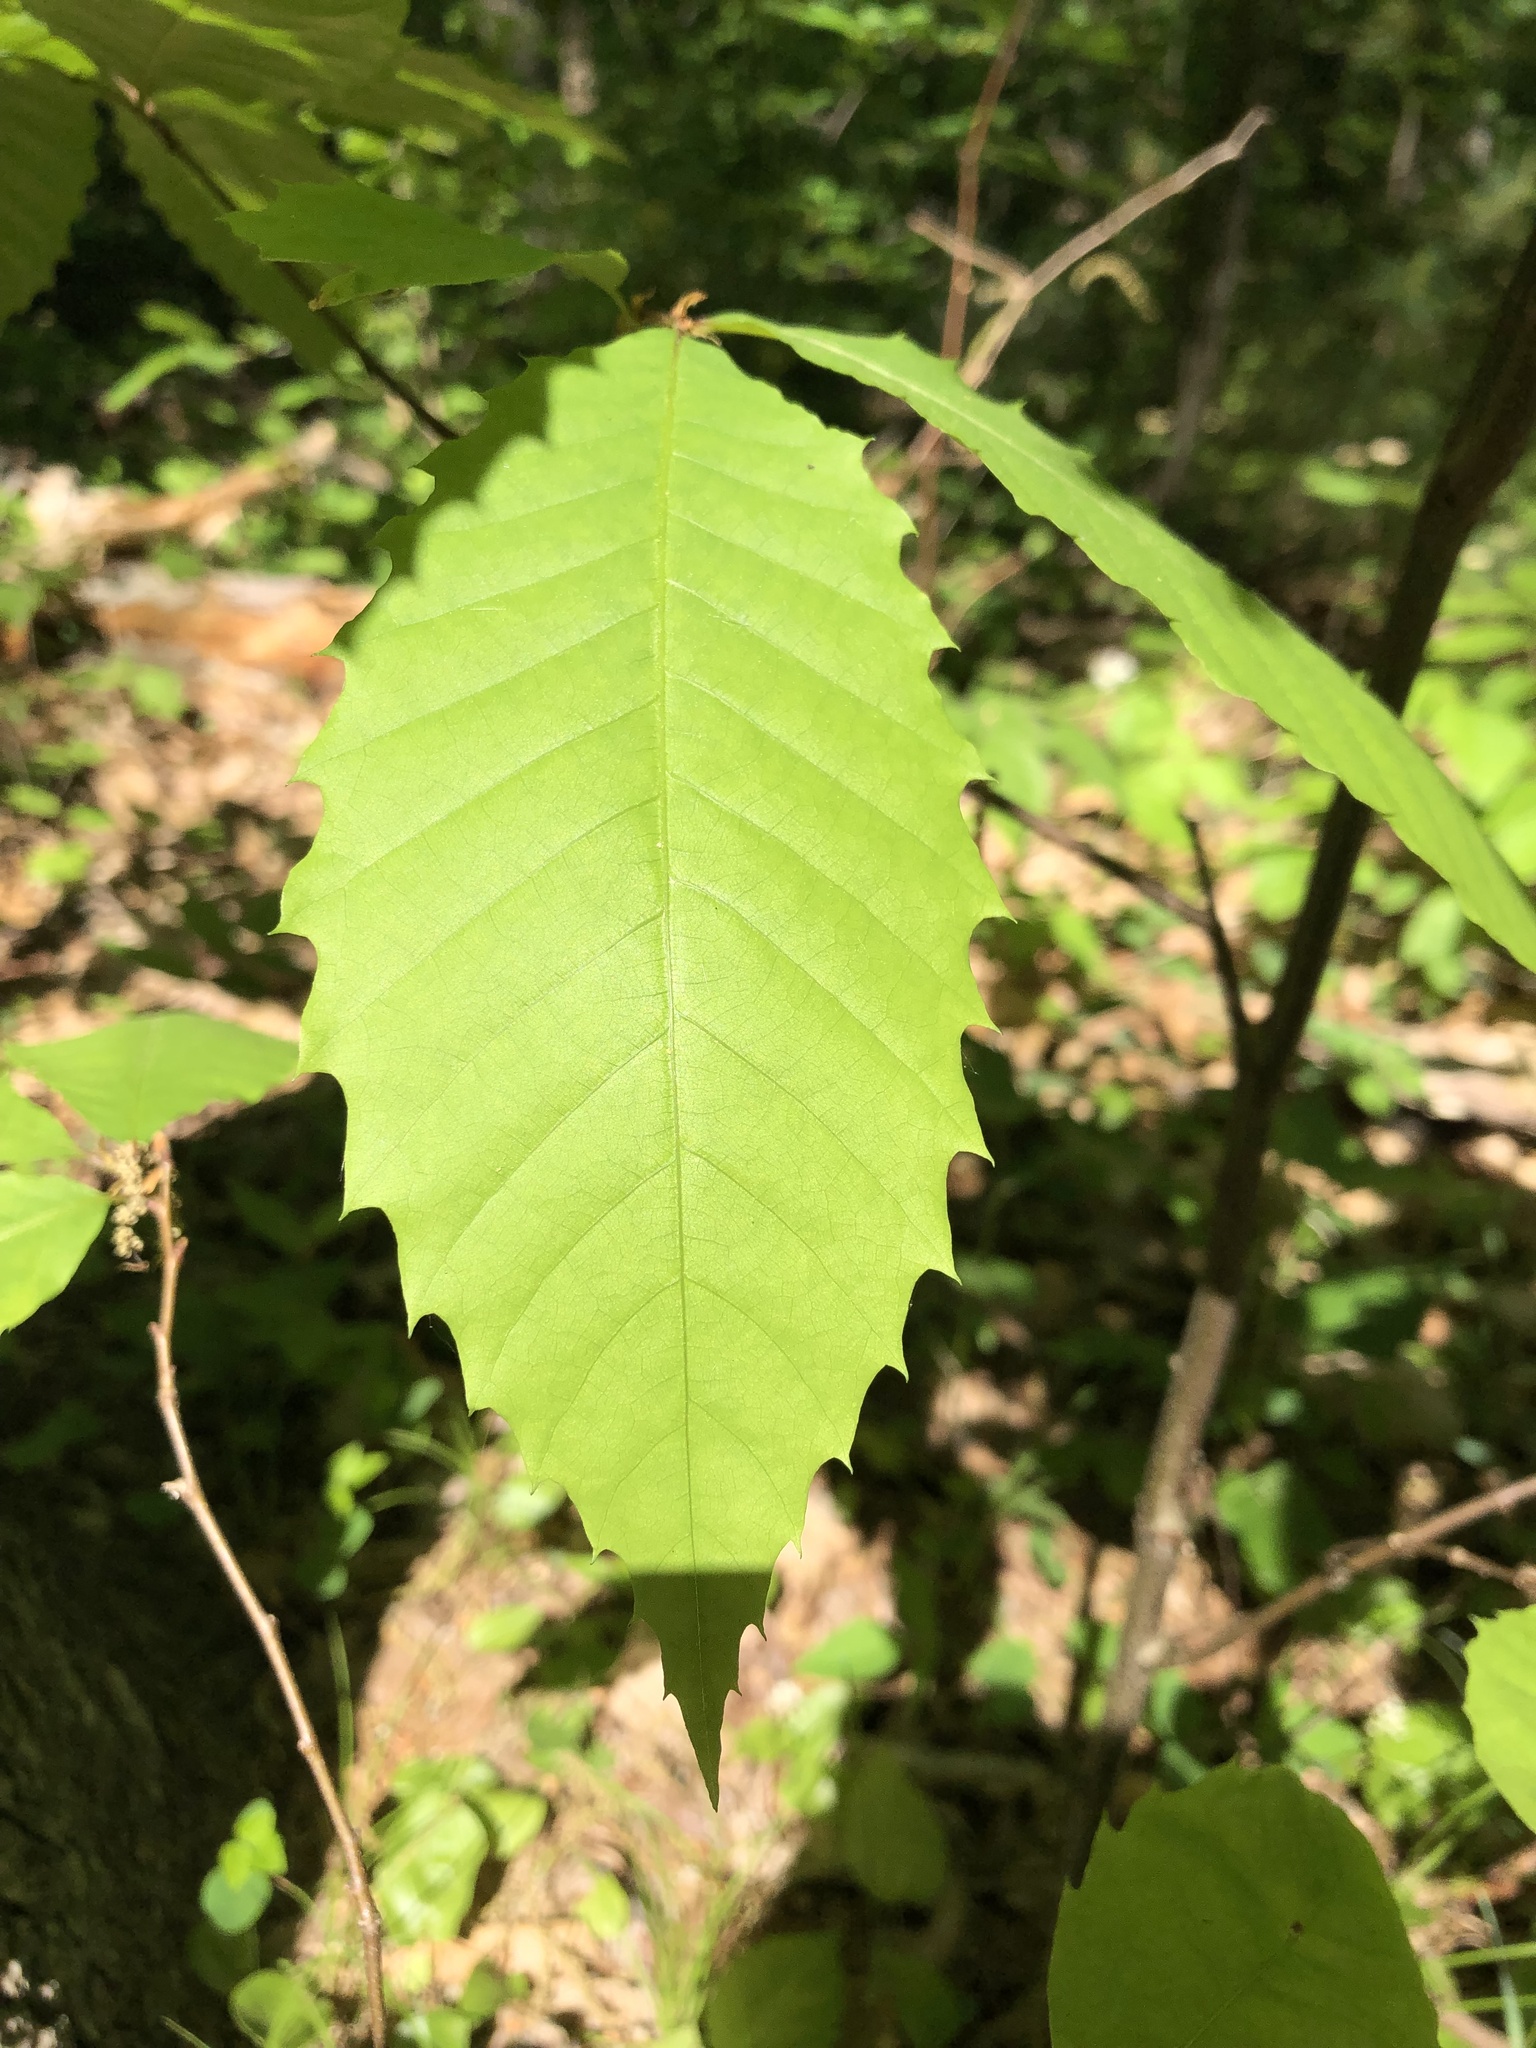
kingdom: Plantae
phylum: Tracheophyta
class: Magnoliopsida
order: Fagales
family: Fagaceae
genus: Castanea
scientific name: Castanea dentata
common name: American chestnut
